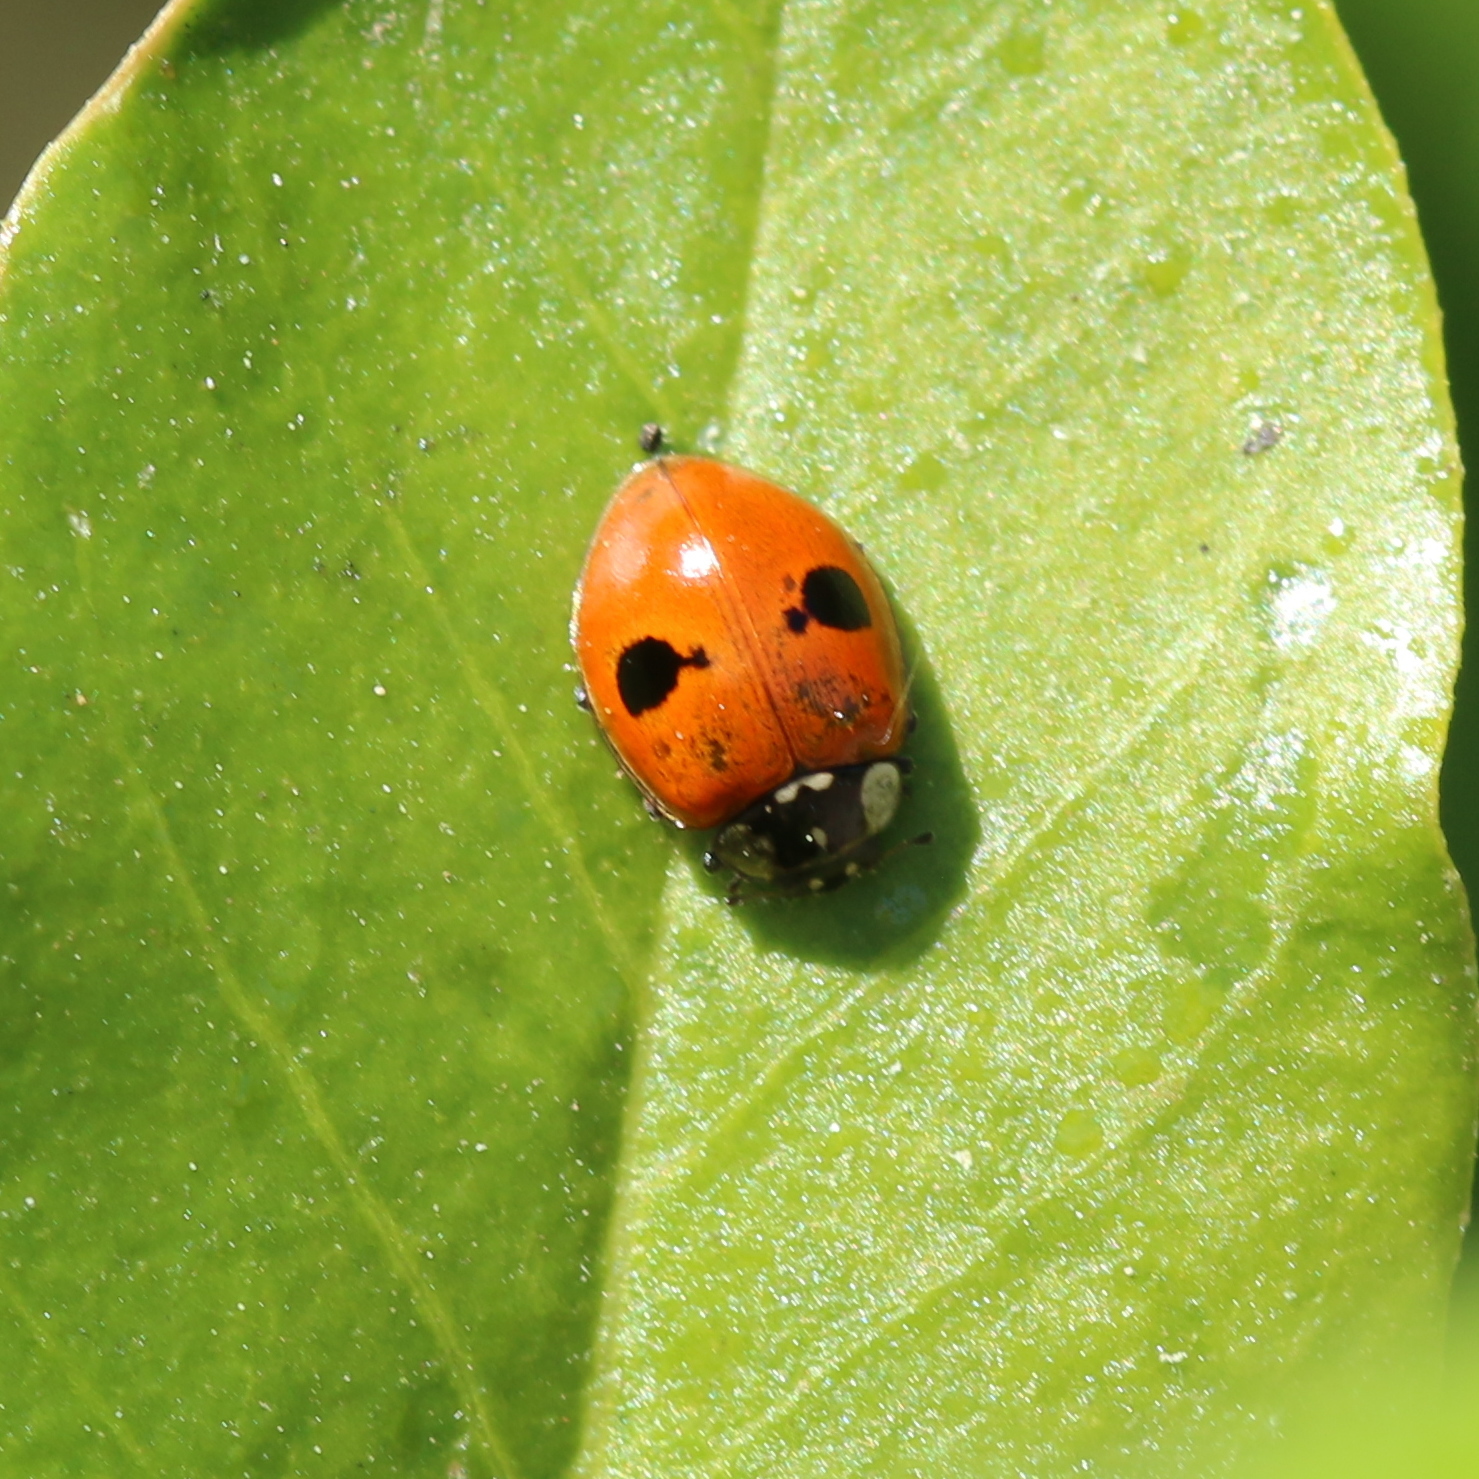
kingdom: Animalia
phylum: Arthropoda
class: Insecta
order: Coleoptera
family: Coccinellidae
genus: Adalia
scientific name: Adalia bipunctata
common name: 2-spot ladybird
